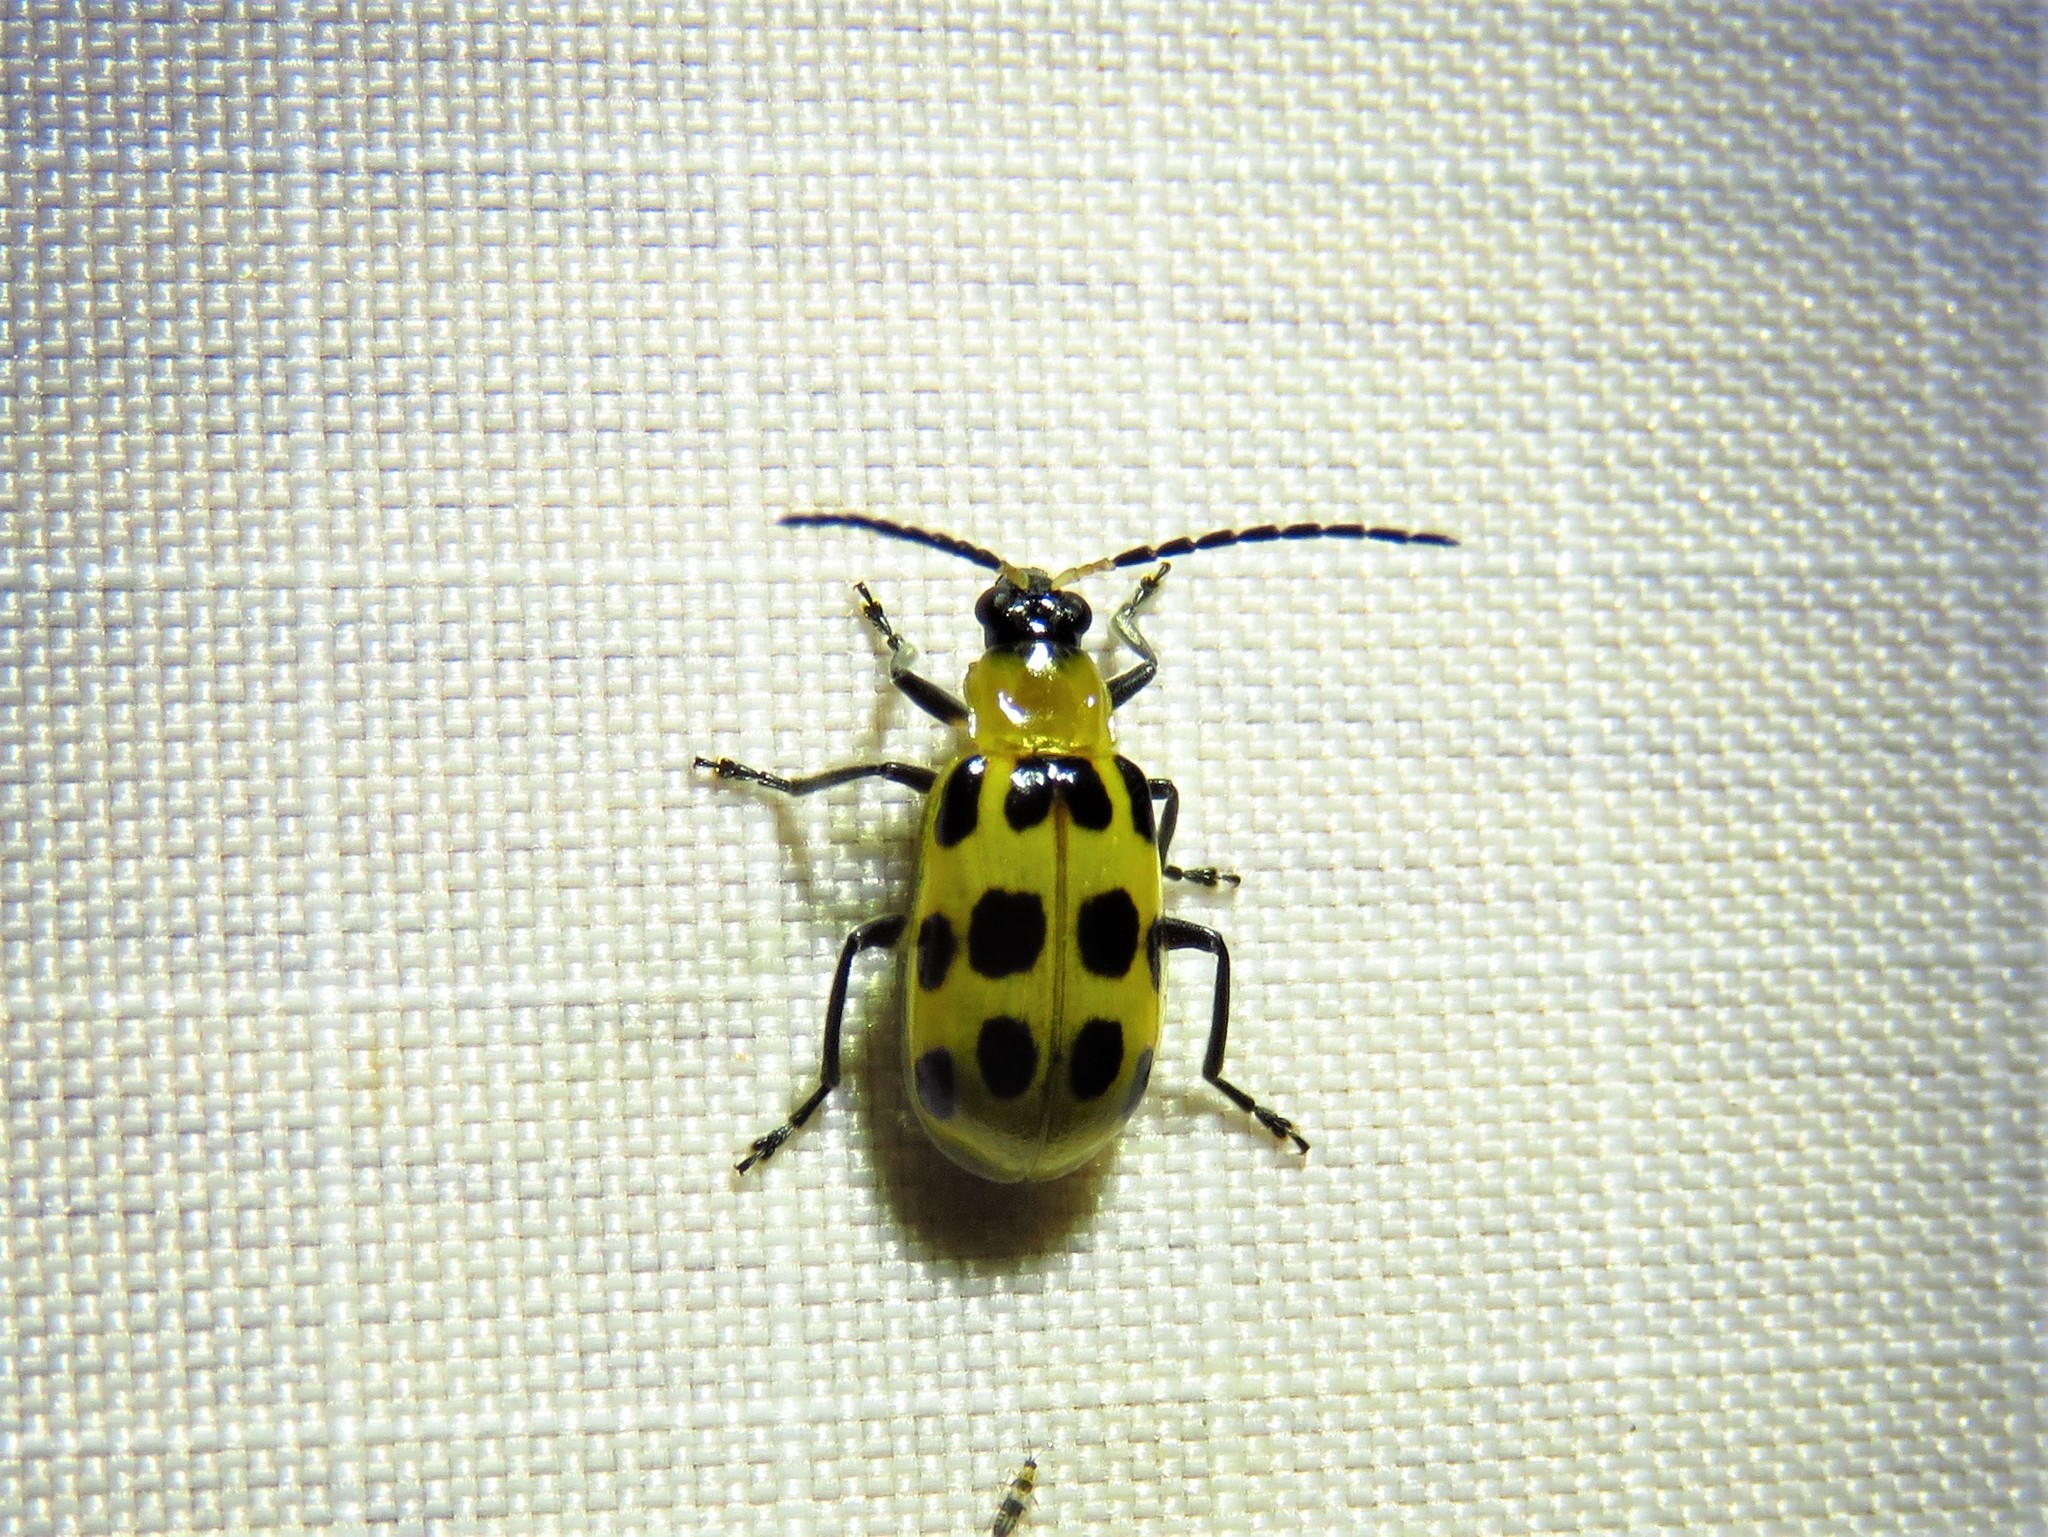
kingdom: Animalia
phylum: Arthropoda
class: Insecta
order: Coleoptera
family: Chrysomelidae
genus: Diabrotica
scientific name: Diabrotica undecimpunctata
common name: Spotted cucumber beetle
